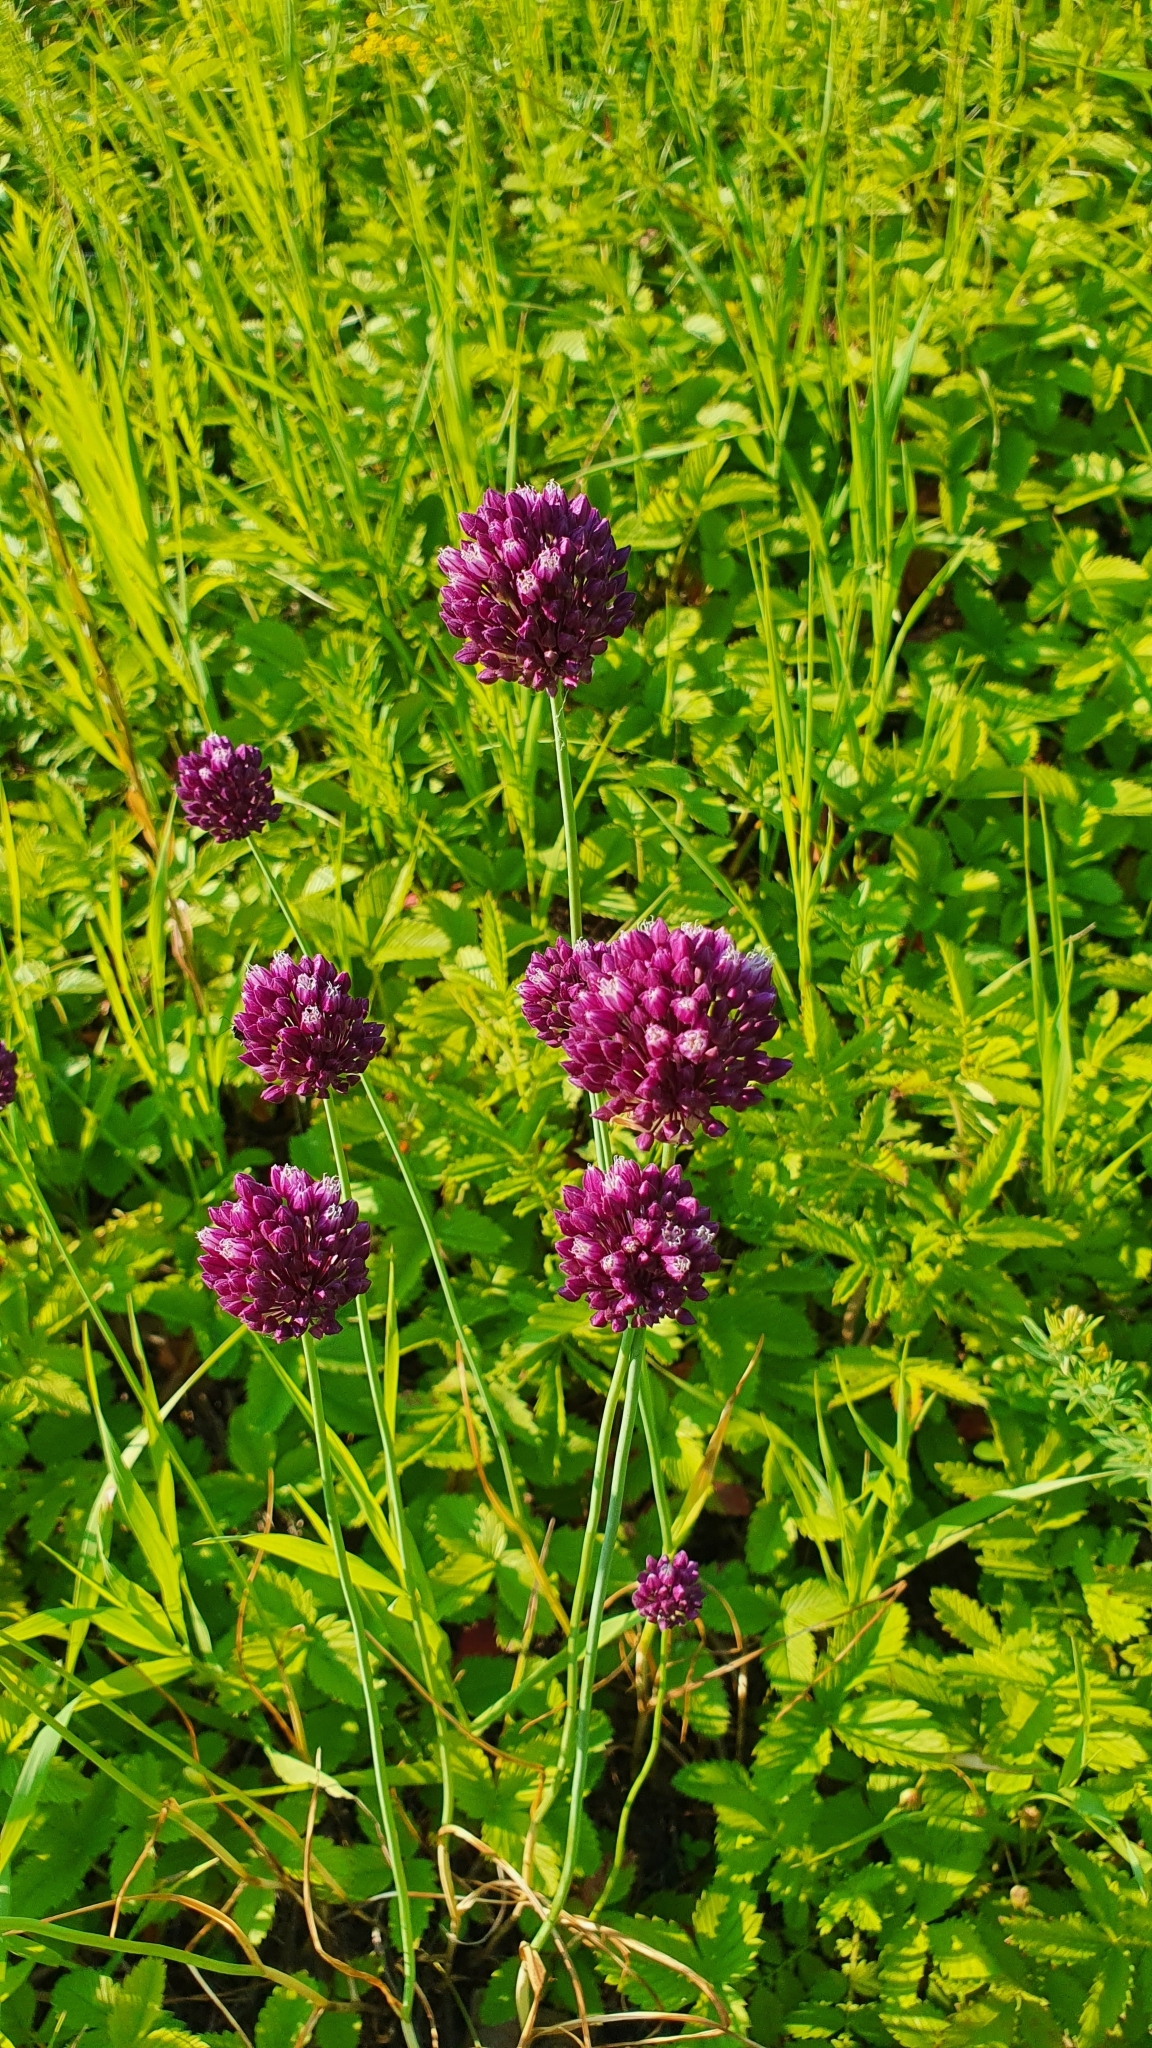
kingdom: Plantae
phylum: Tracheophyta
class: Liliopsida
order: Asparagales
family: Amaryllidaceae
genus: Allium
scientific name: Allium rotundum
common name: Sand leek
